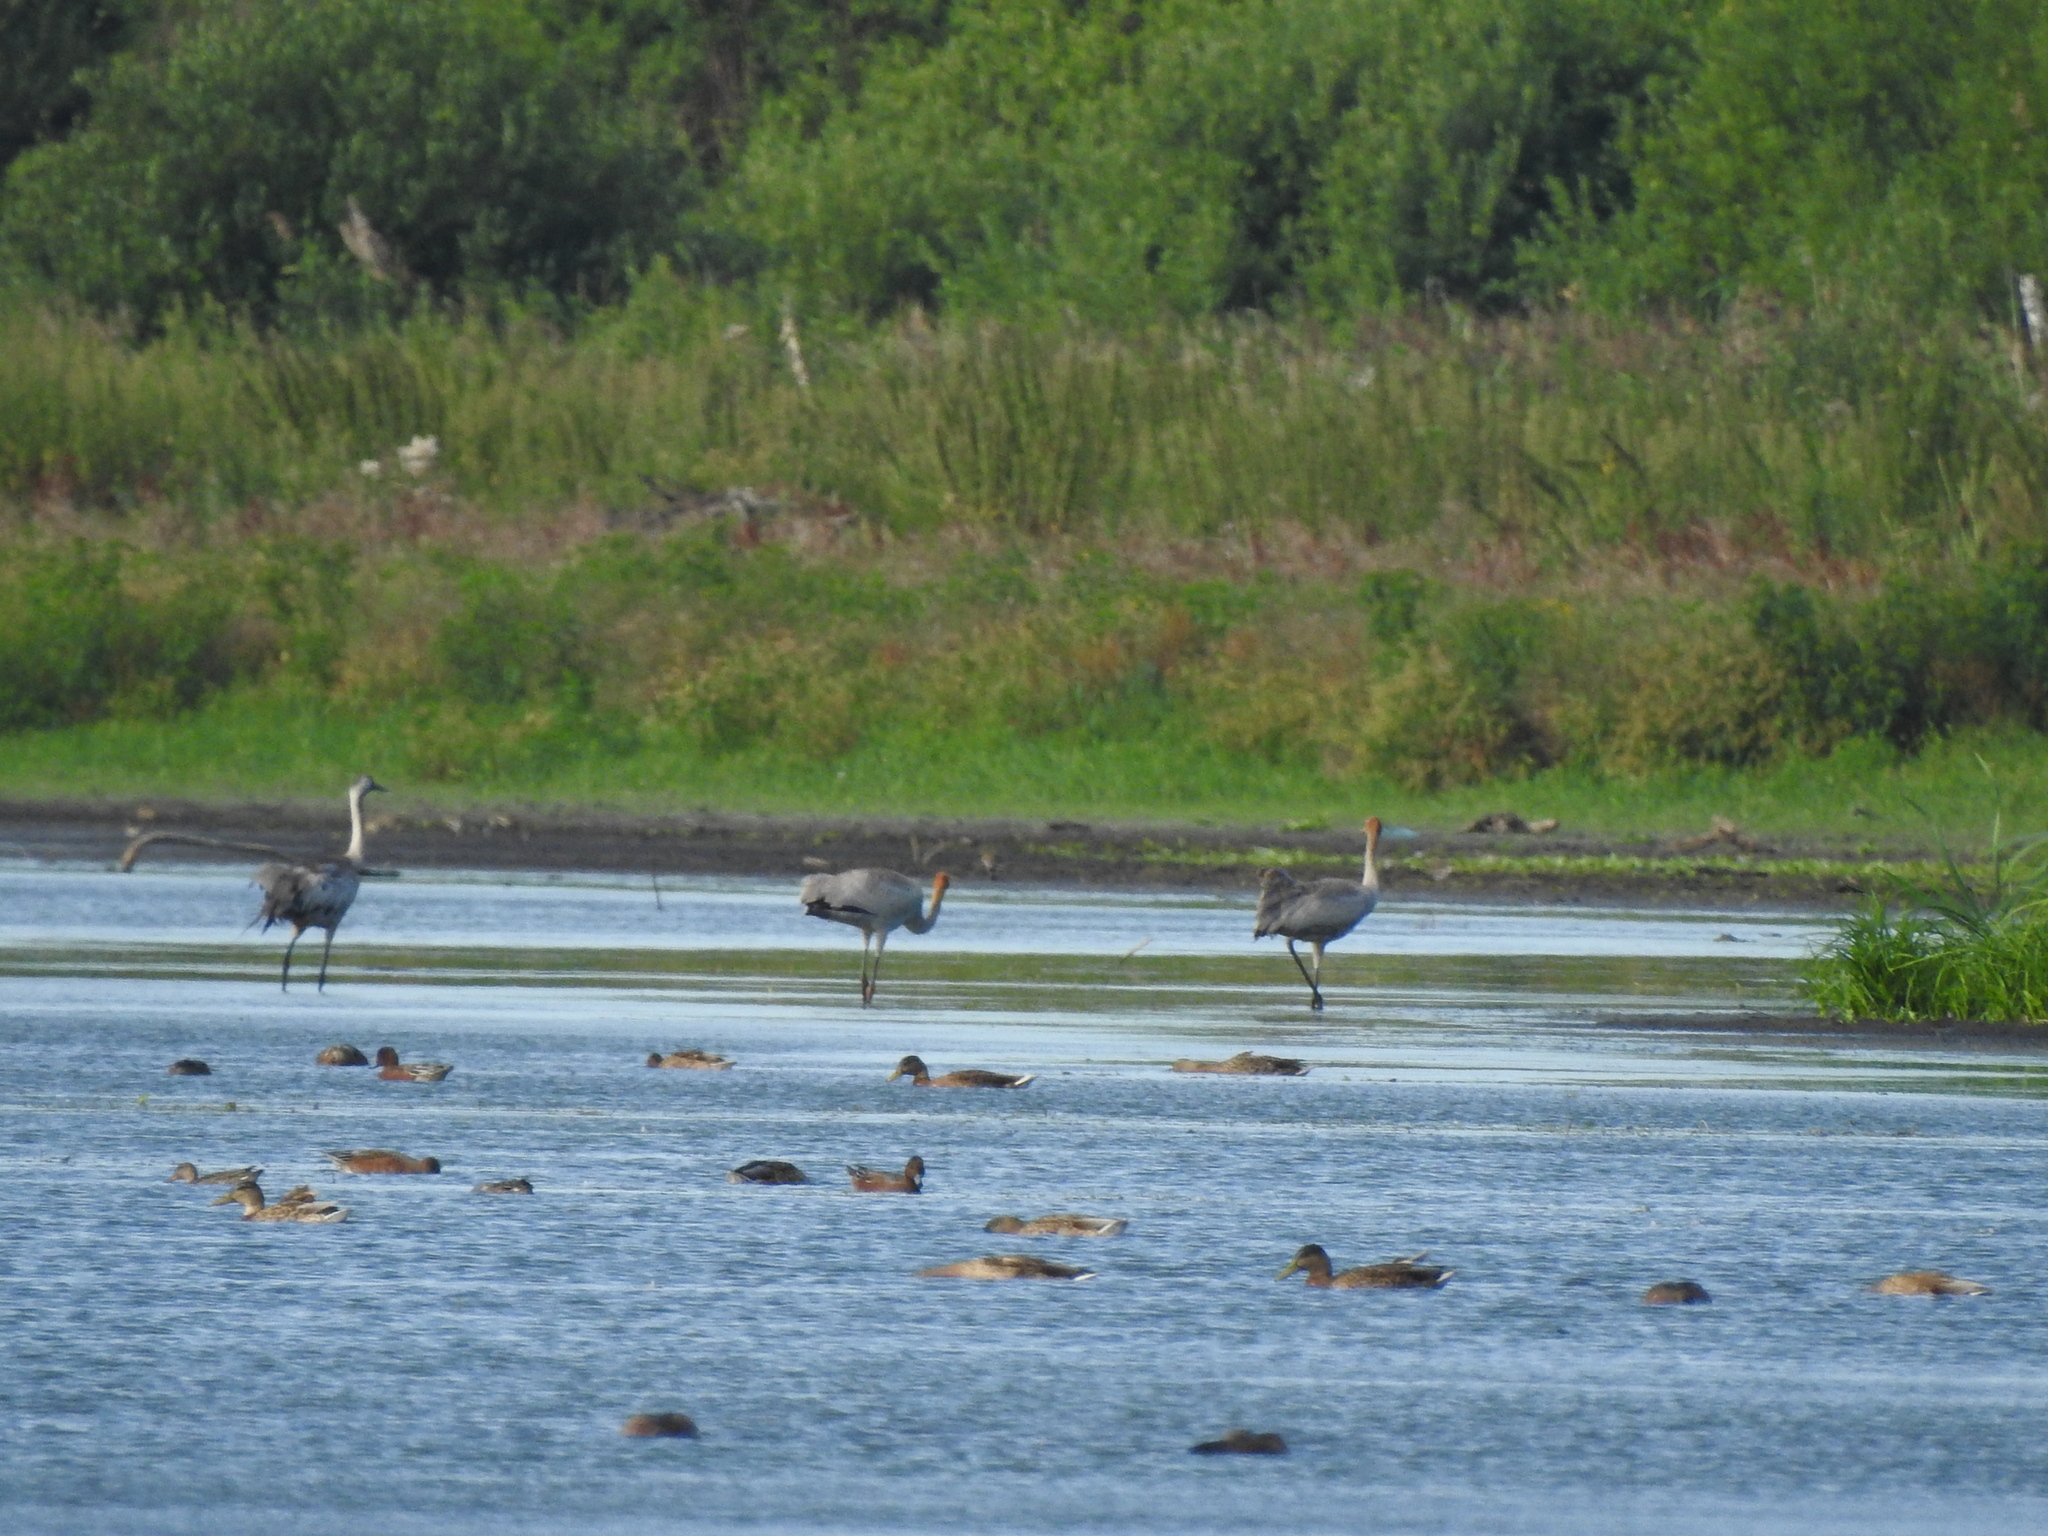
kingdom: Animalia
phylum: Chordata
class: Aves
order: Gruiformes
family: Gruidae
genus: Grus
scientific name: Grus grus
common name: Common crane
